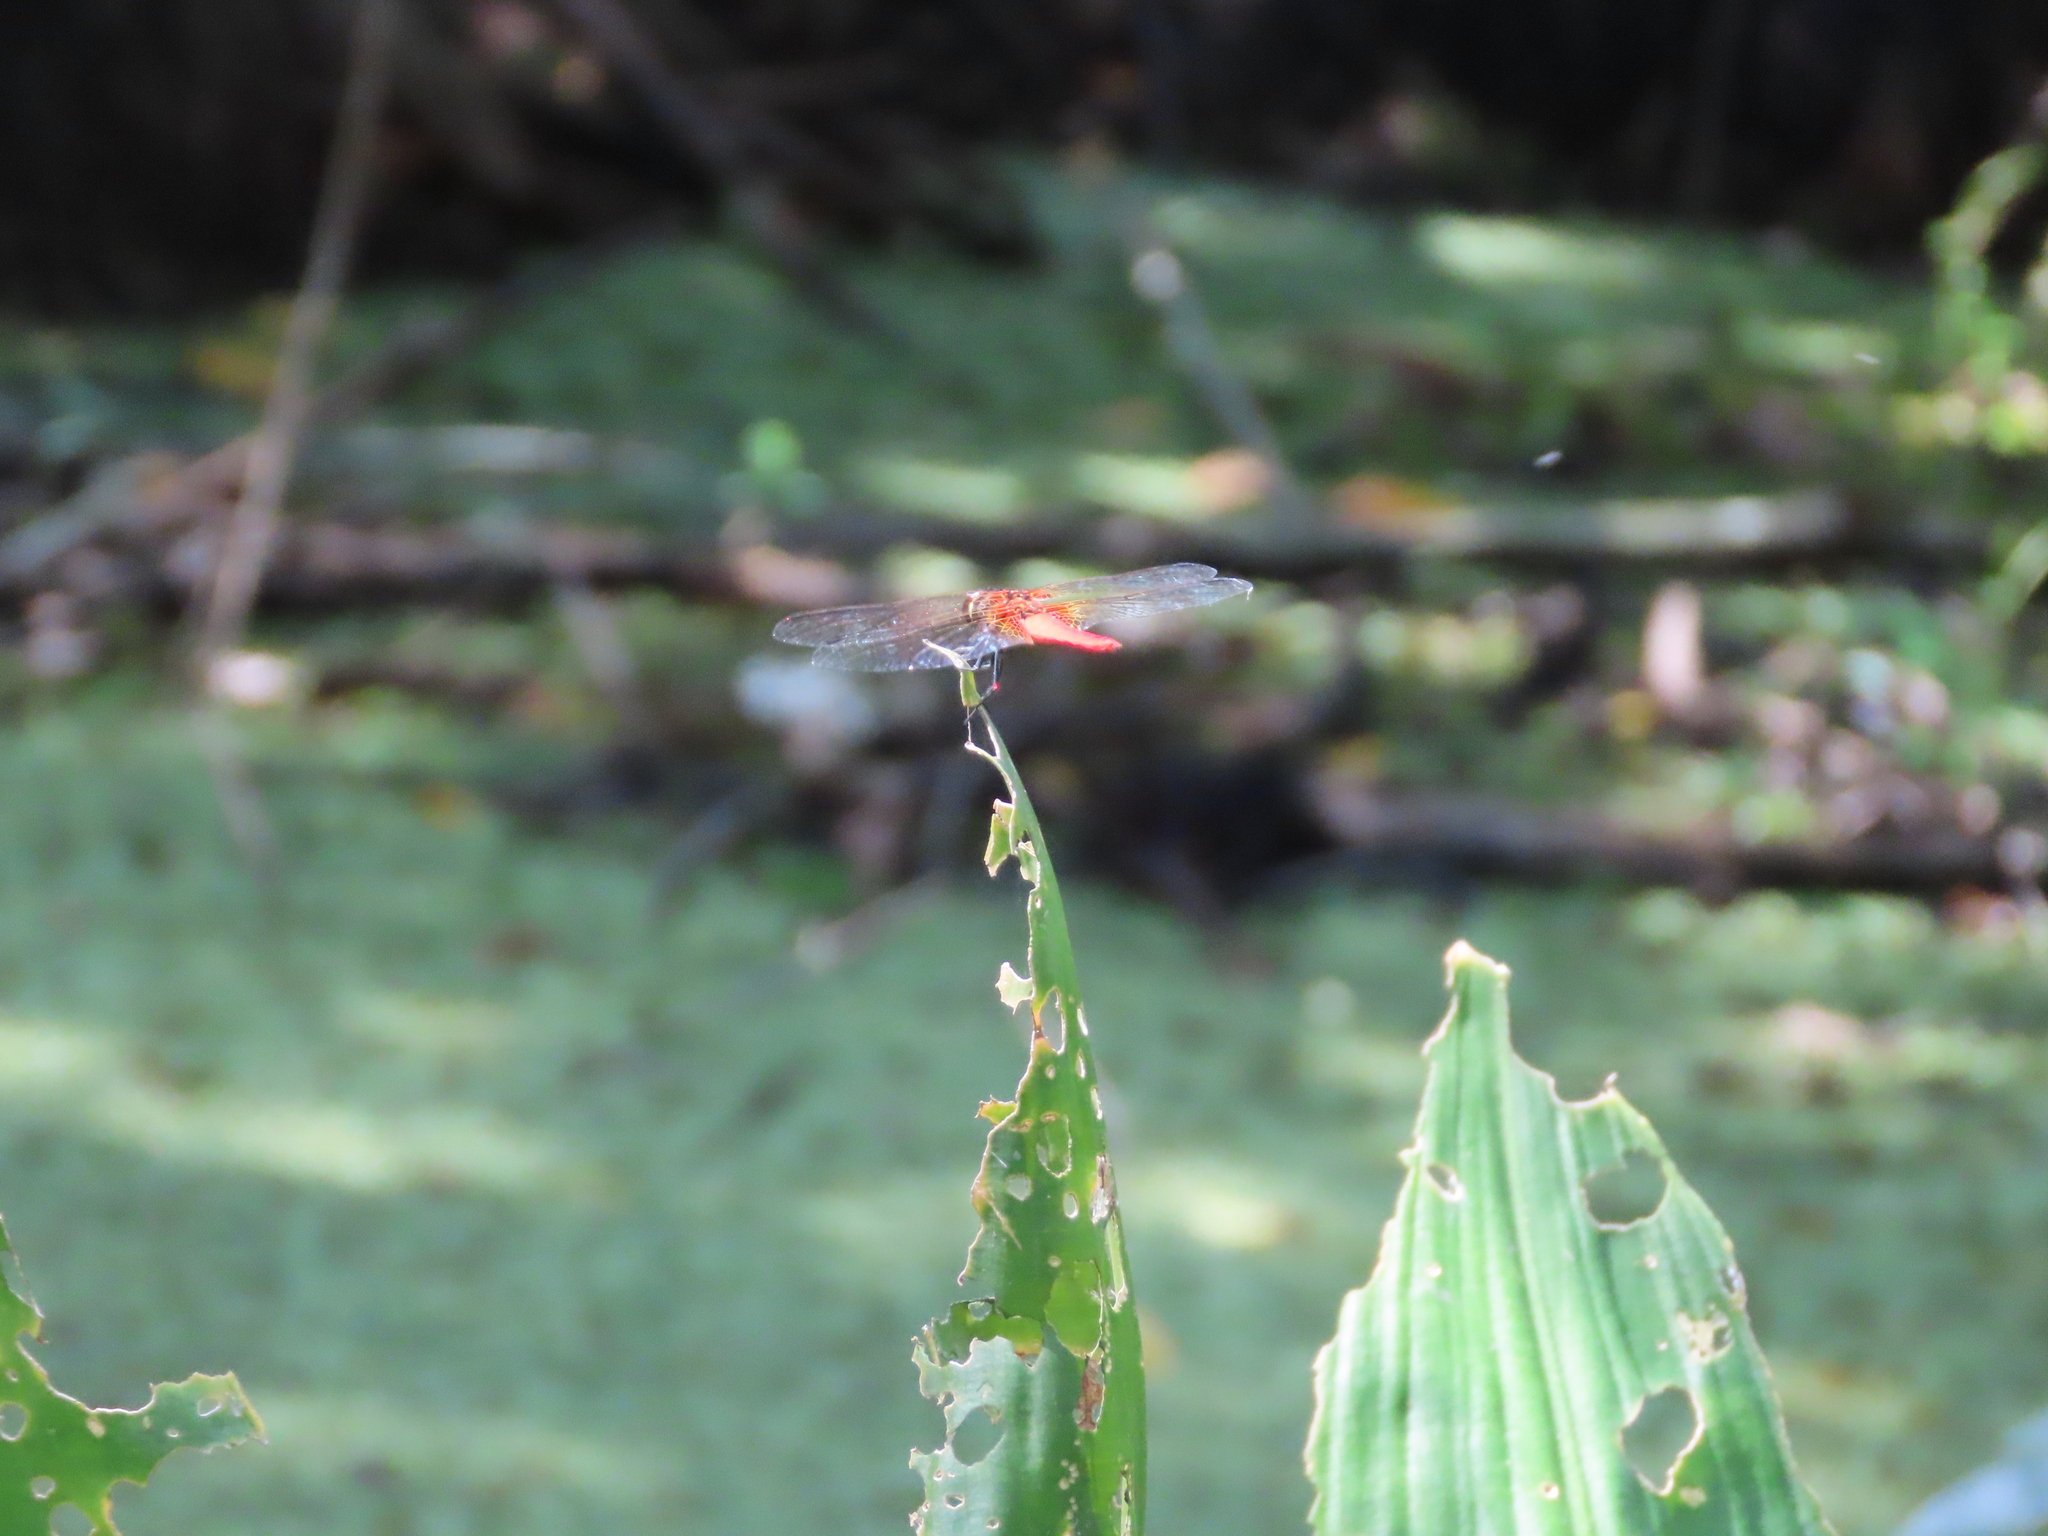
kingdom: Animalia
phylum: Arthropoda
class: Insecta
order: Odonata
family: Libellulidae
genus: Aethriamanta
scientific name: Aethriamanta brevipennis
